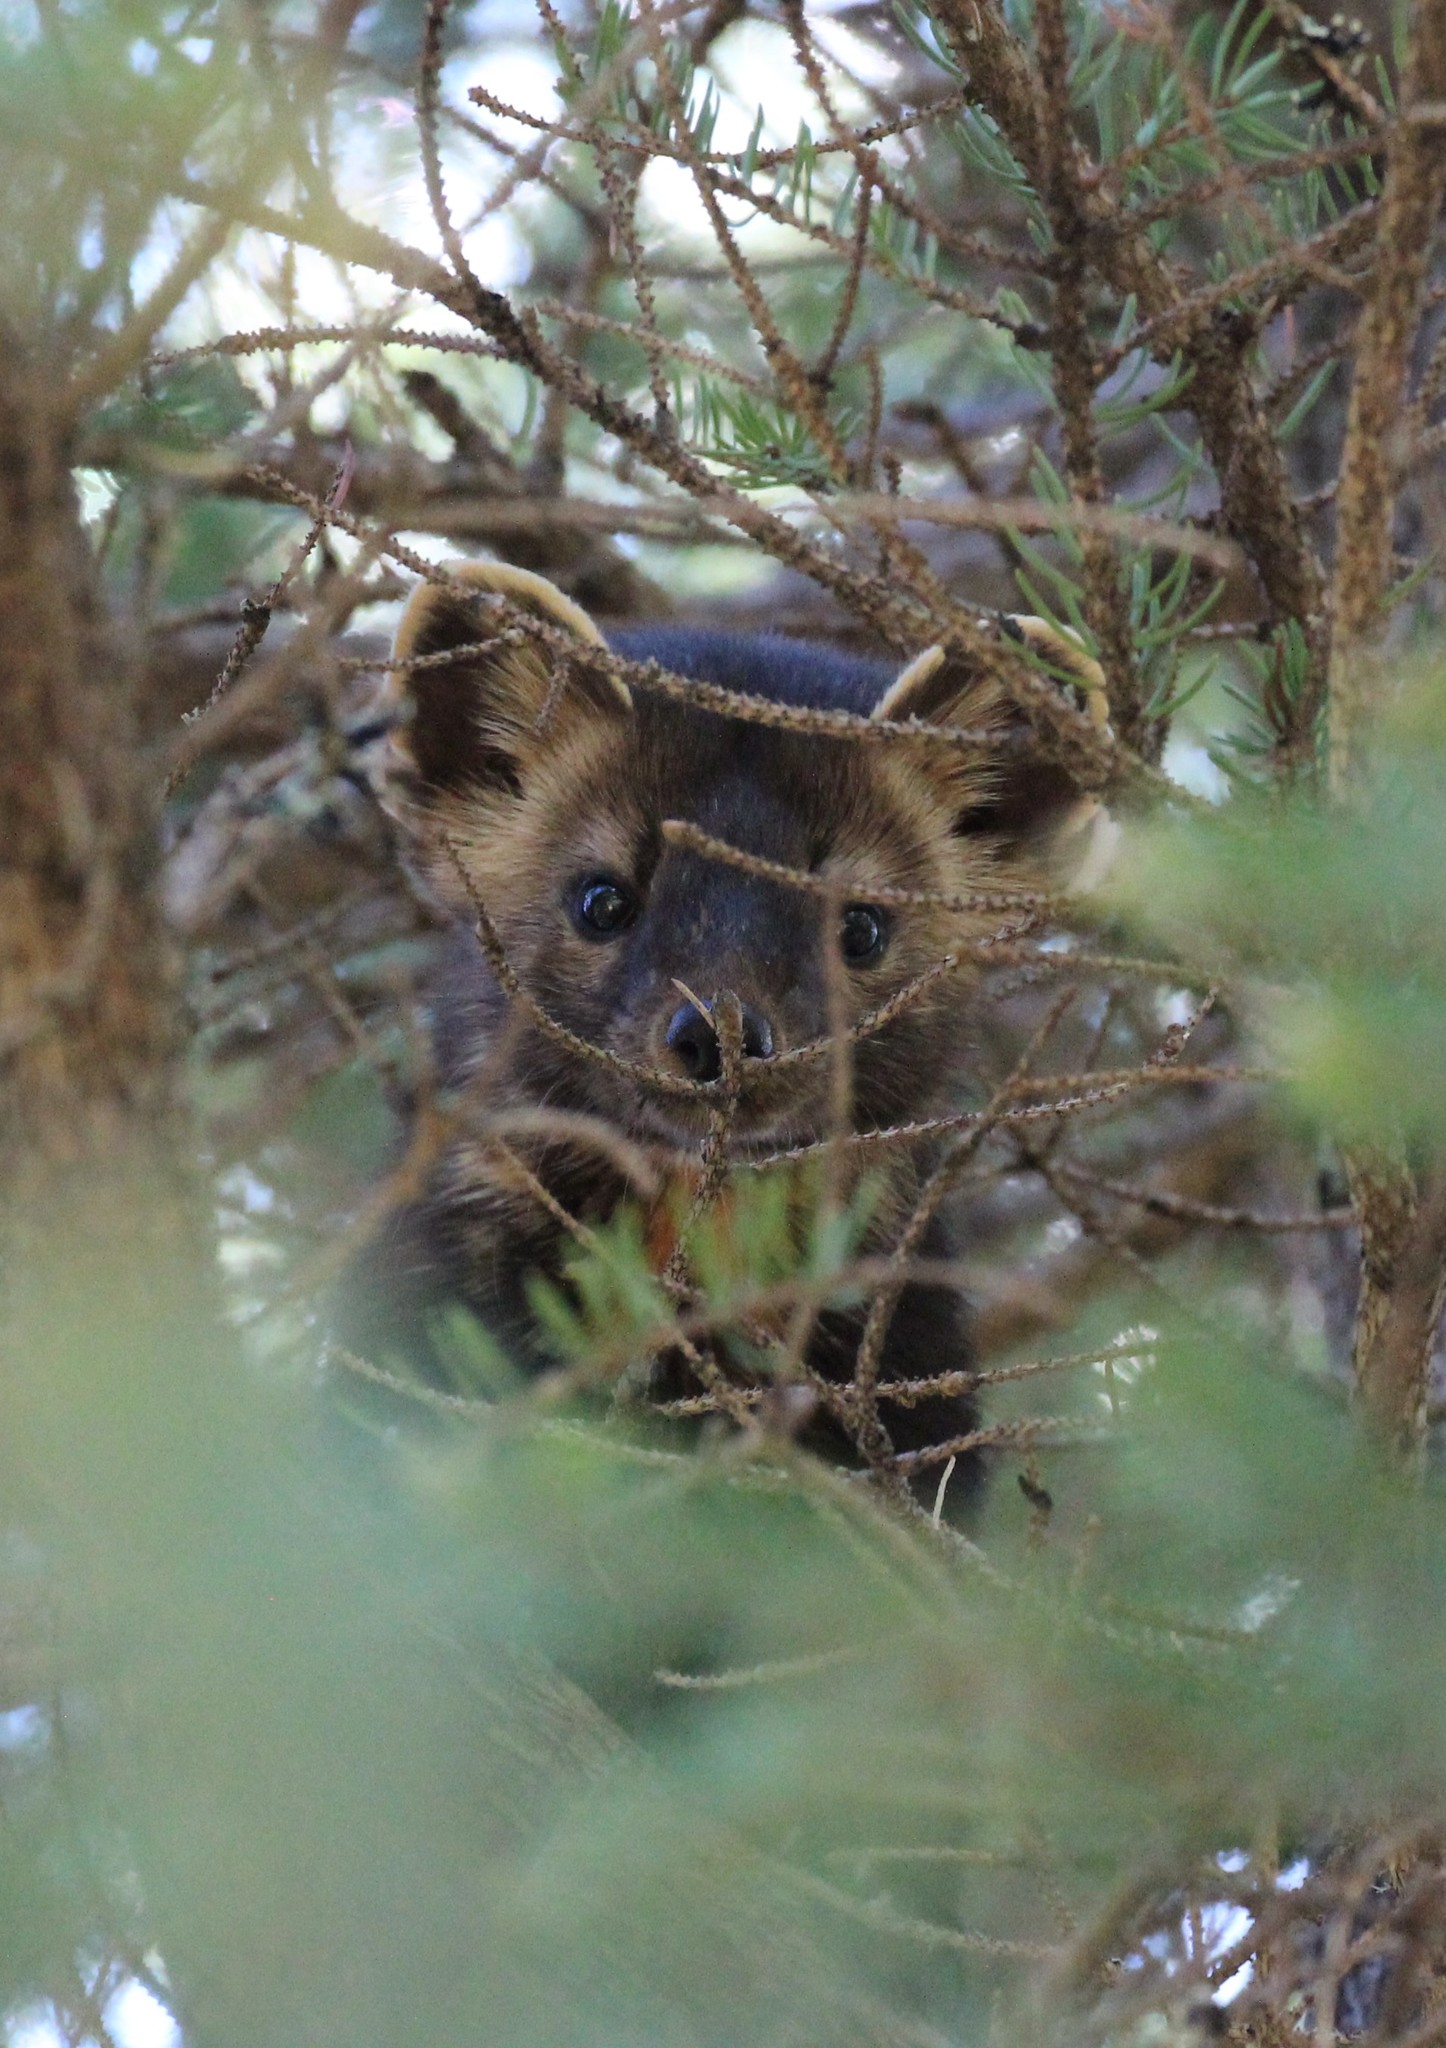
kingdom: Animalia
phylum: Chordata
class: Mammalia
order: Carnivora
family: Mustelidae
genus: Martes
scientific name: Martes americana
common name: American marten
